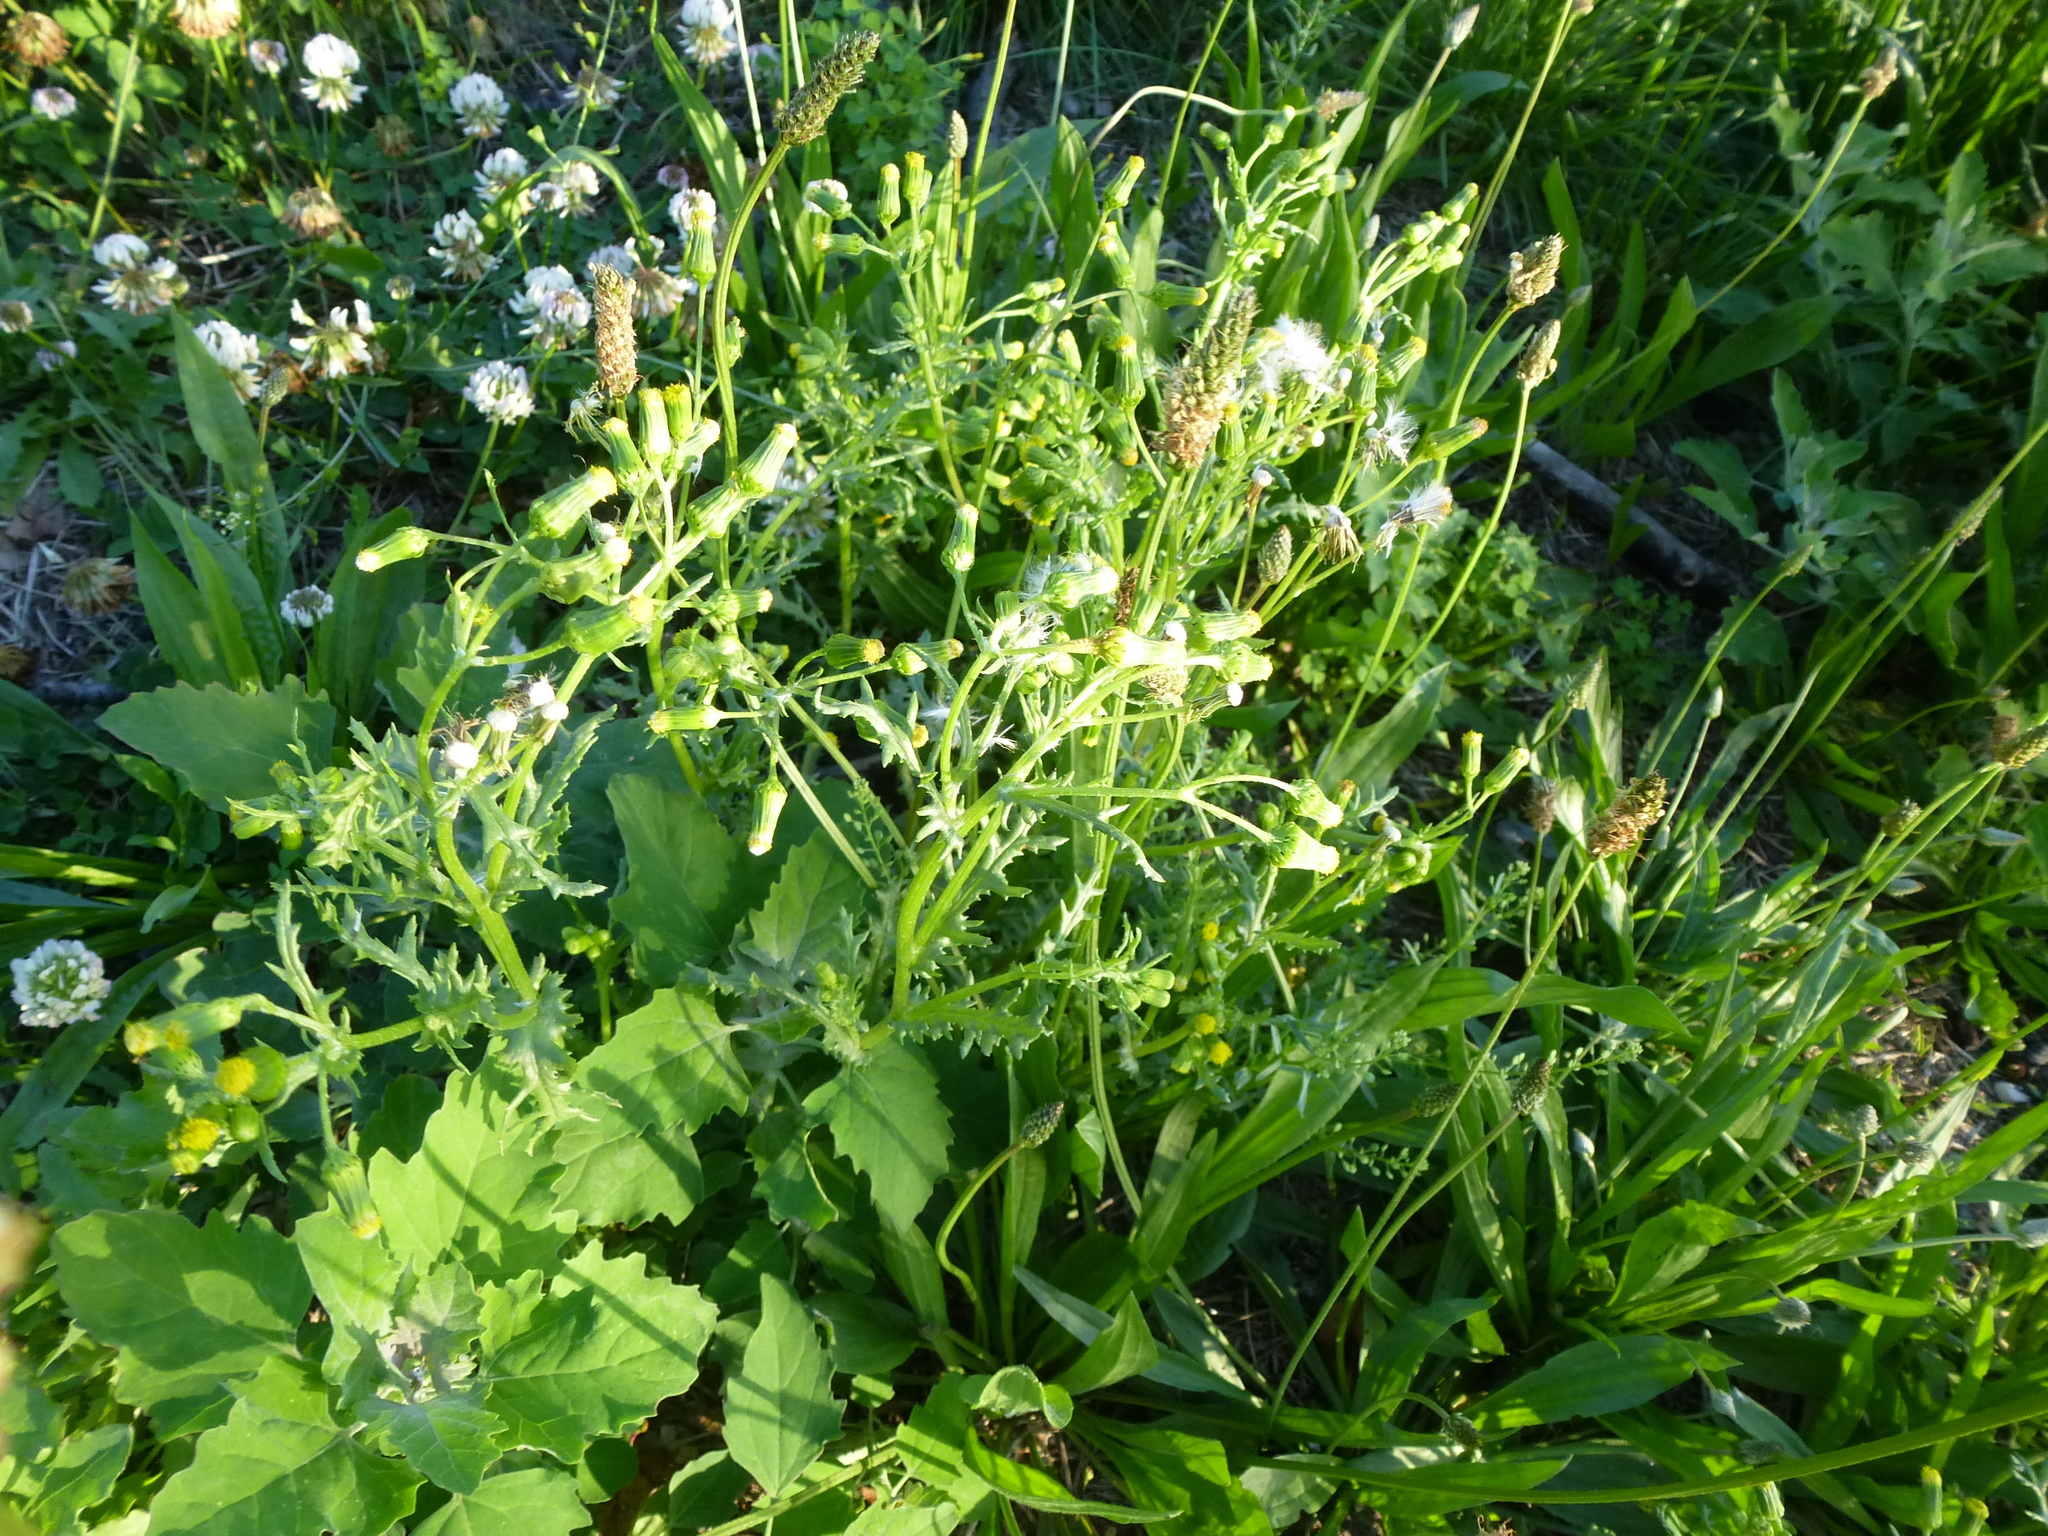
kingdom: Plantae
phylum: Tracheophyta
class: Magnoliopsida
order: Asterales
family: Asteraceae
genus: Senecio
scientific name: Senecio vulgaris
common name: Old-man-in-the-spring
